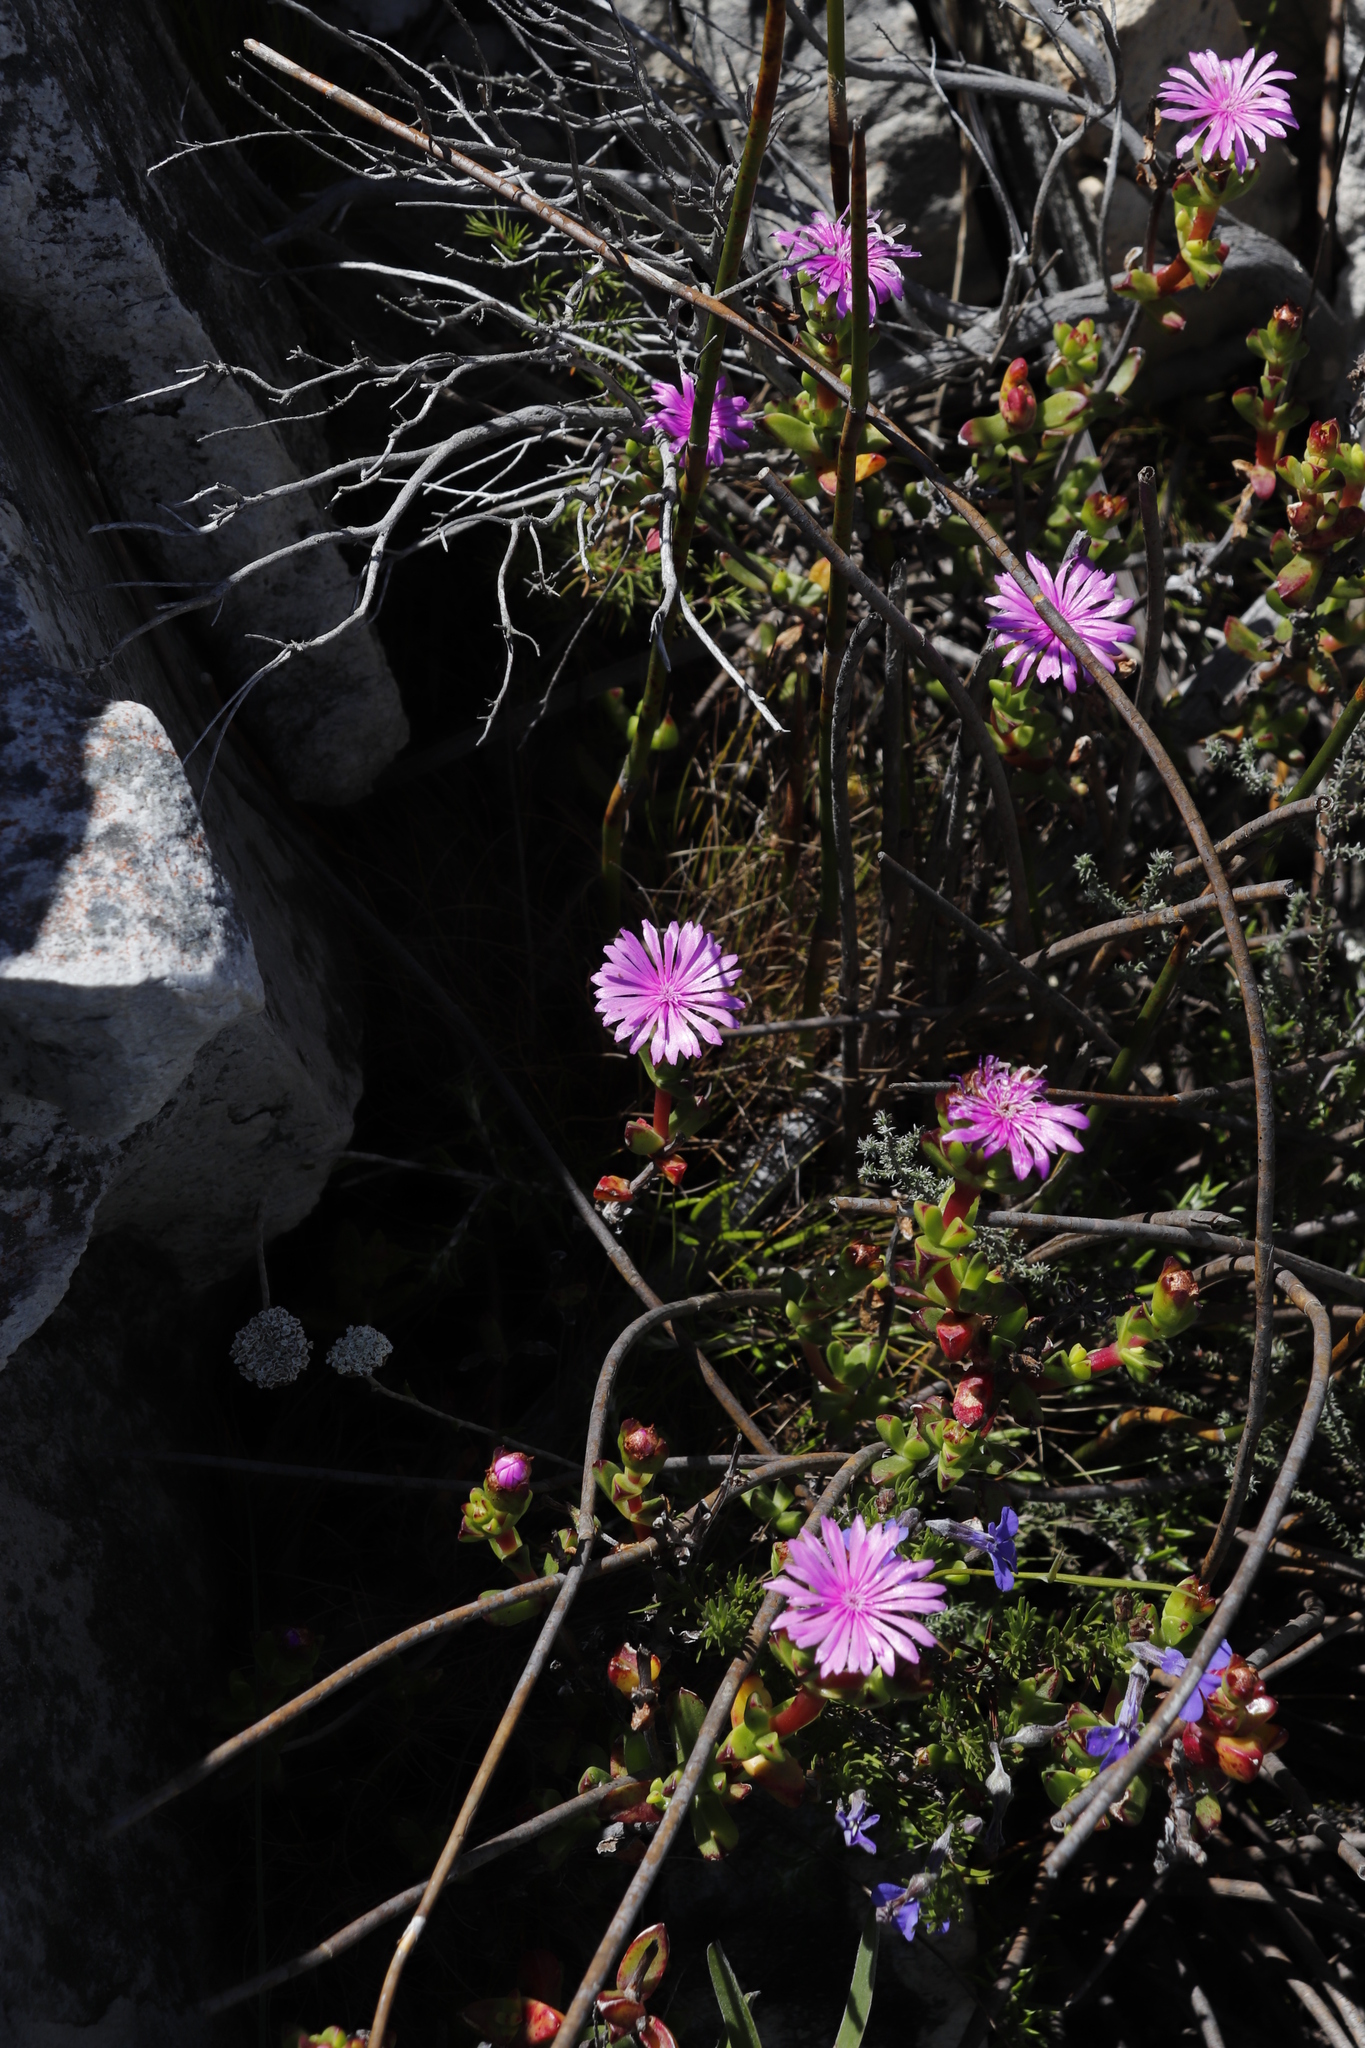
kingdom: Plantae
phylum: Tracheophyta
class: Magnoliopsida
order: Caryophyllales
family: Aizoaceae
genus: Erepsia
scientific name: Erepsia inclaudens
